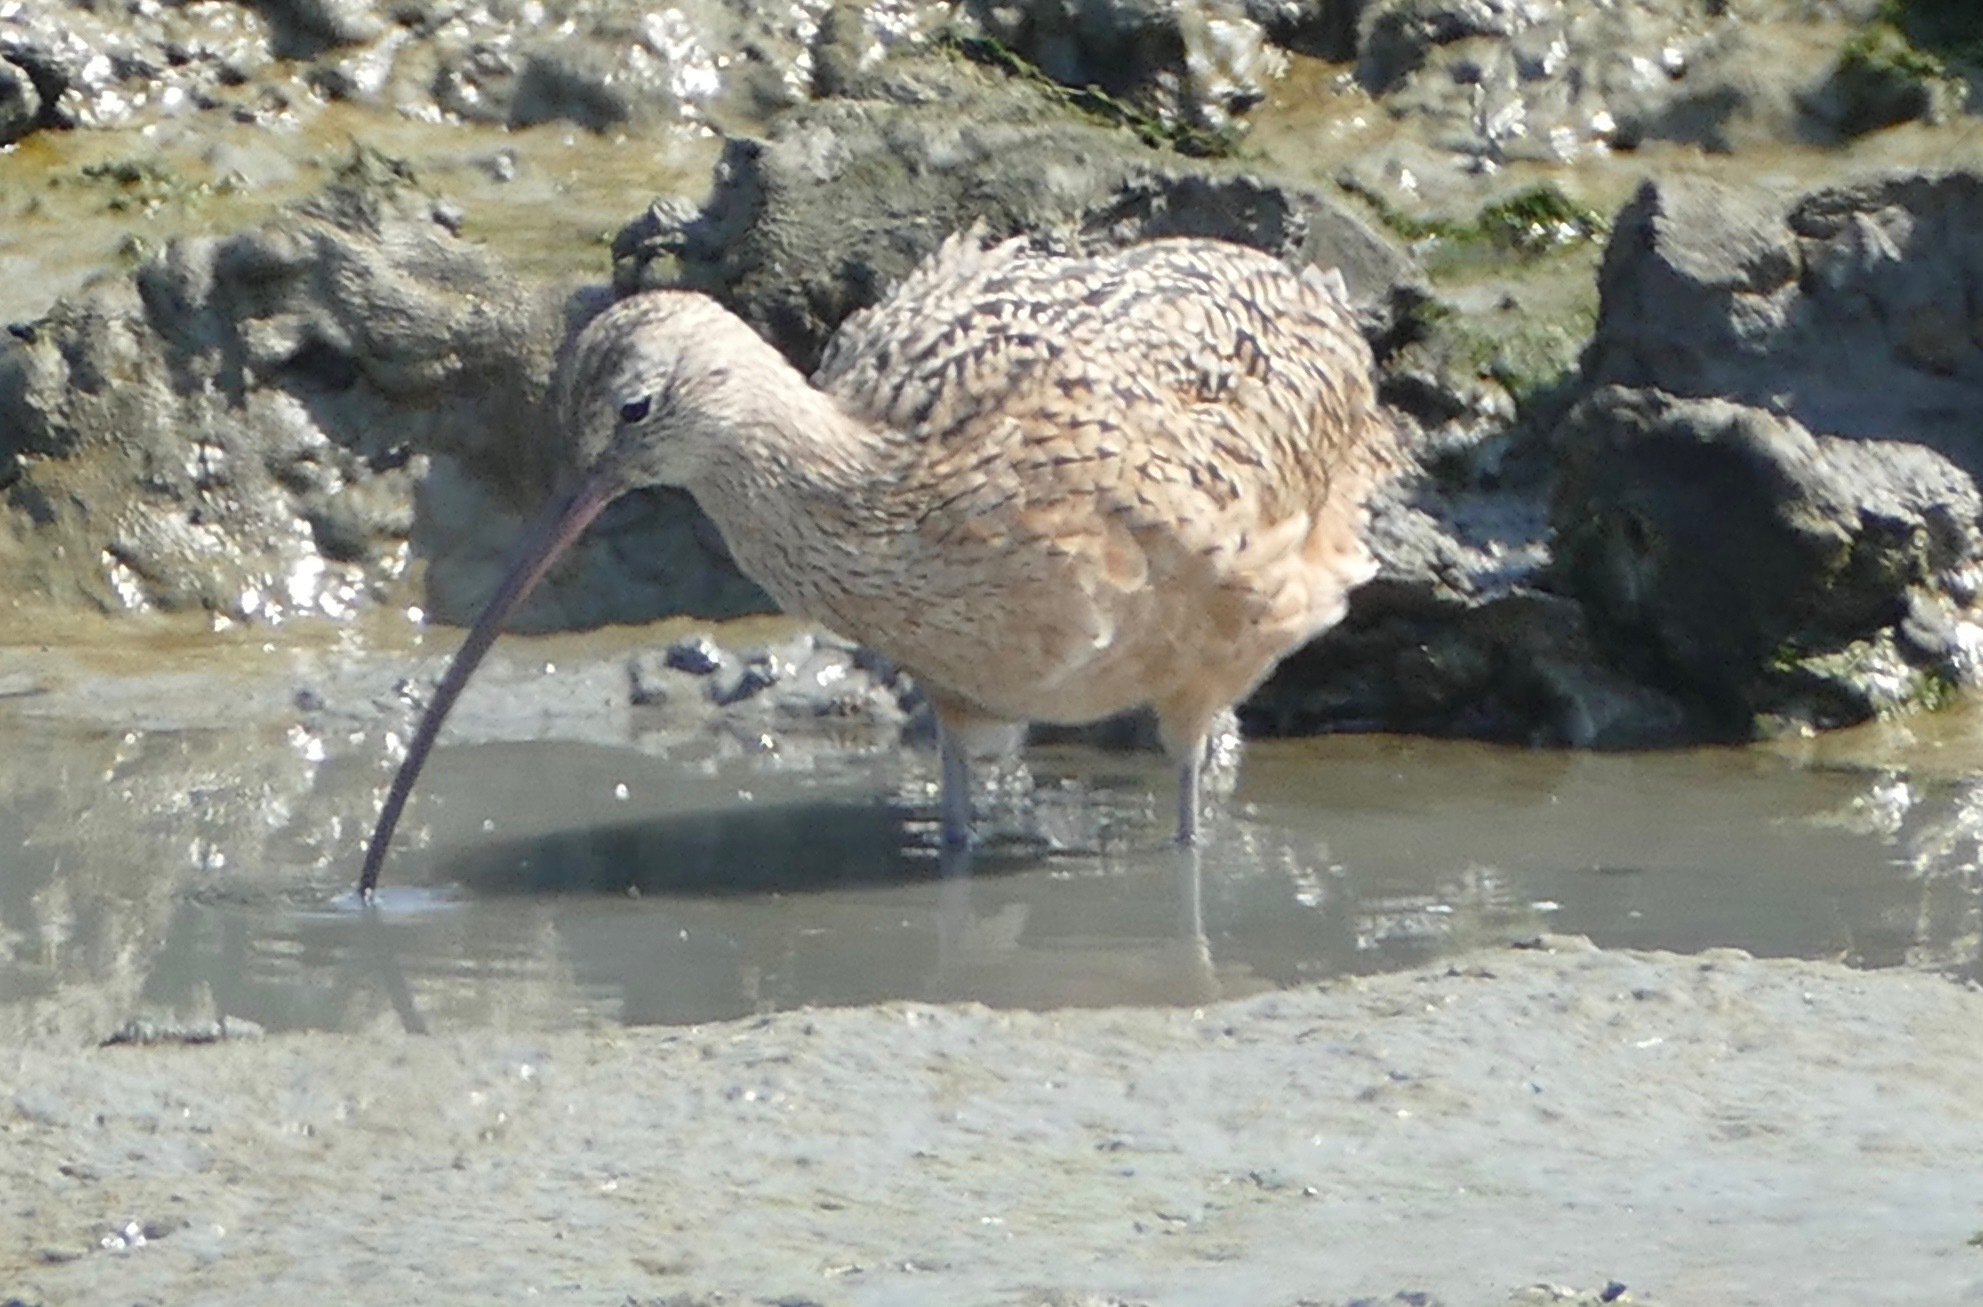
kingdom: Animalia
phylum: Chordata
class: Aves
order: Charadriiformes
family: Scolopacidae
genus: Numenius
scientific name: Numenius americanus
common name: Long-billed curlew
